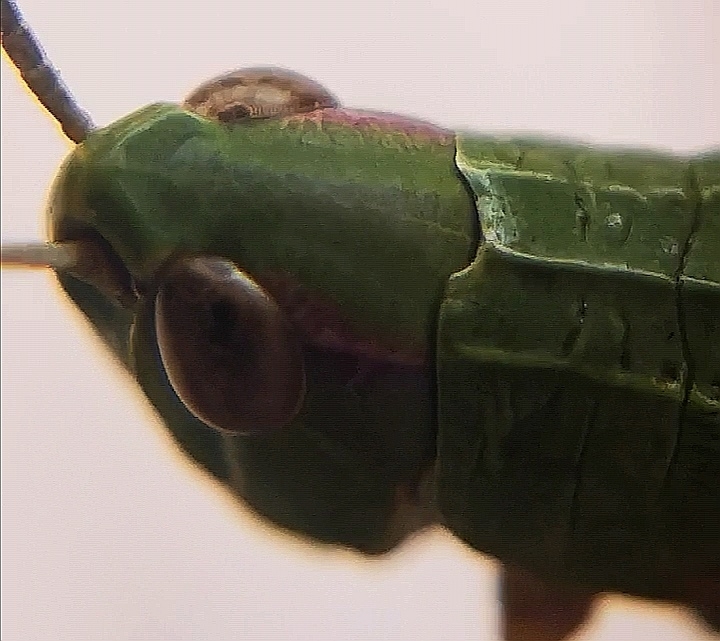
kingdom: Animalia
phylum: Arthropoda
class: Insecta
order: Orthoptera
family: Acrididae
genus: Pseudochorthippus
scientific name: Pseudochorthippus parallelus
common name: Meadow grasshopper
